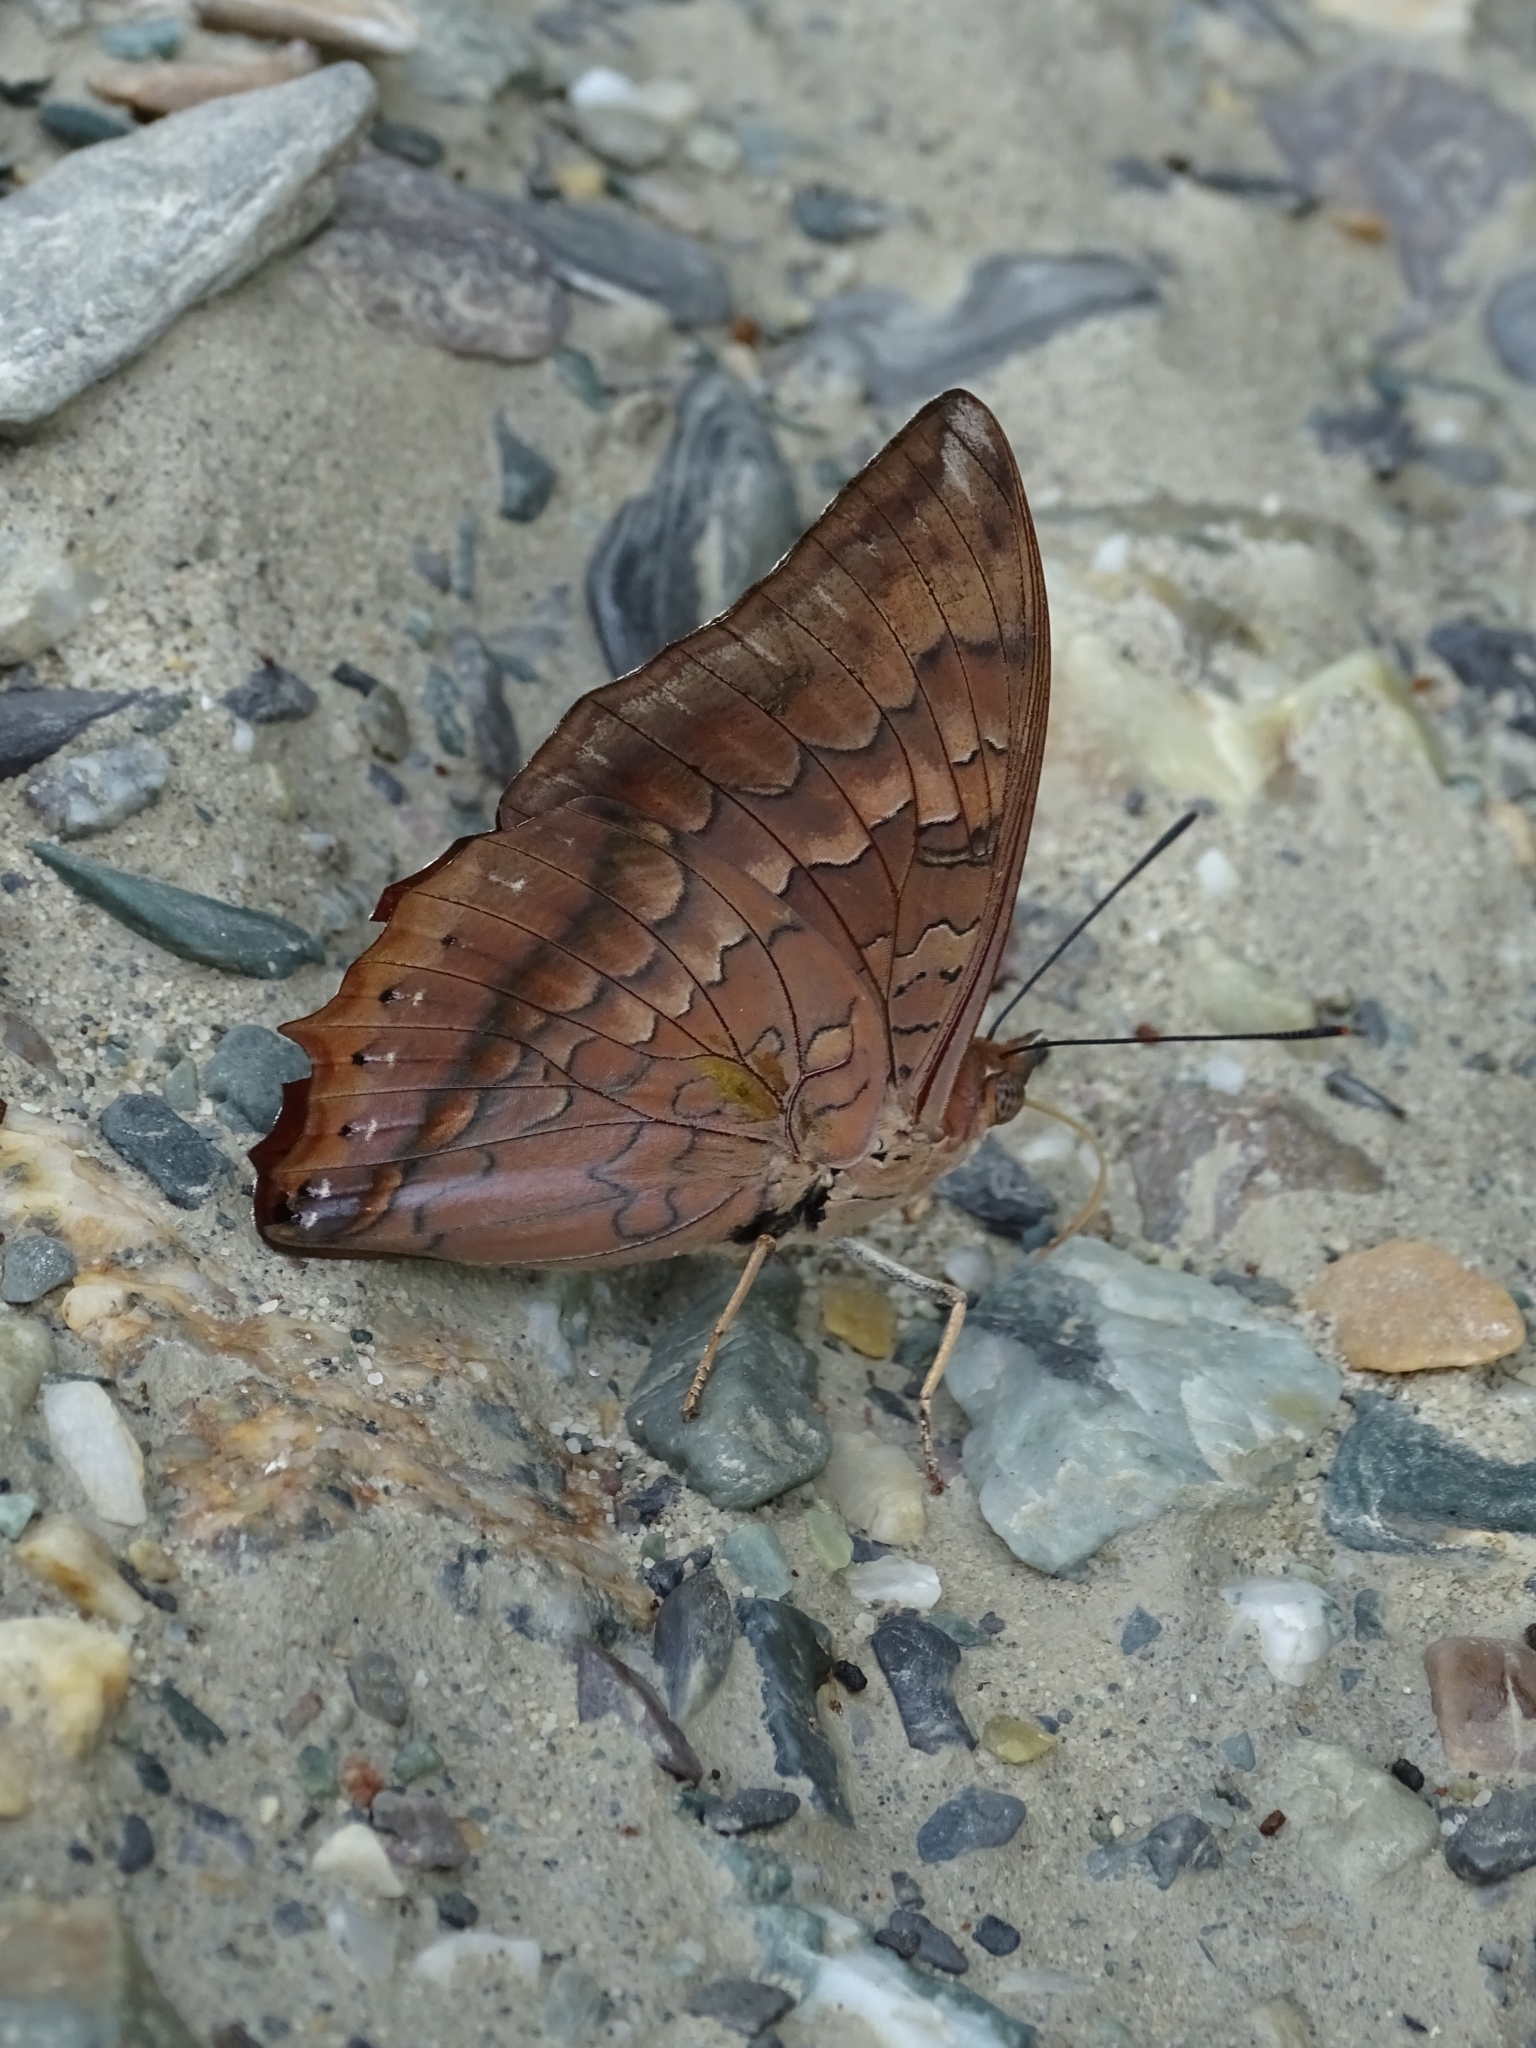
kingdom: Animalia
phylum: Arthropoda
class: Insecta
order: Lepidoptera
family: Nymphalidae
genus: Charaxes
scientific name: Charaxes bernardus
